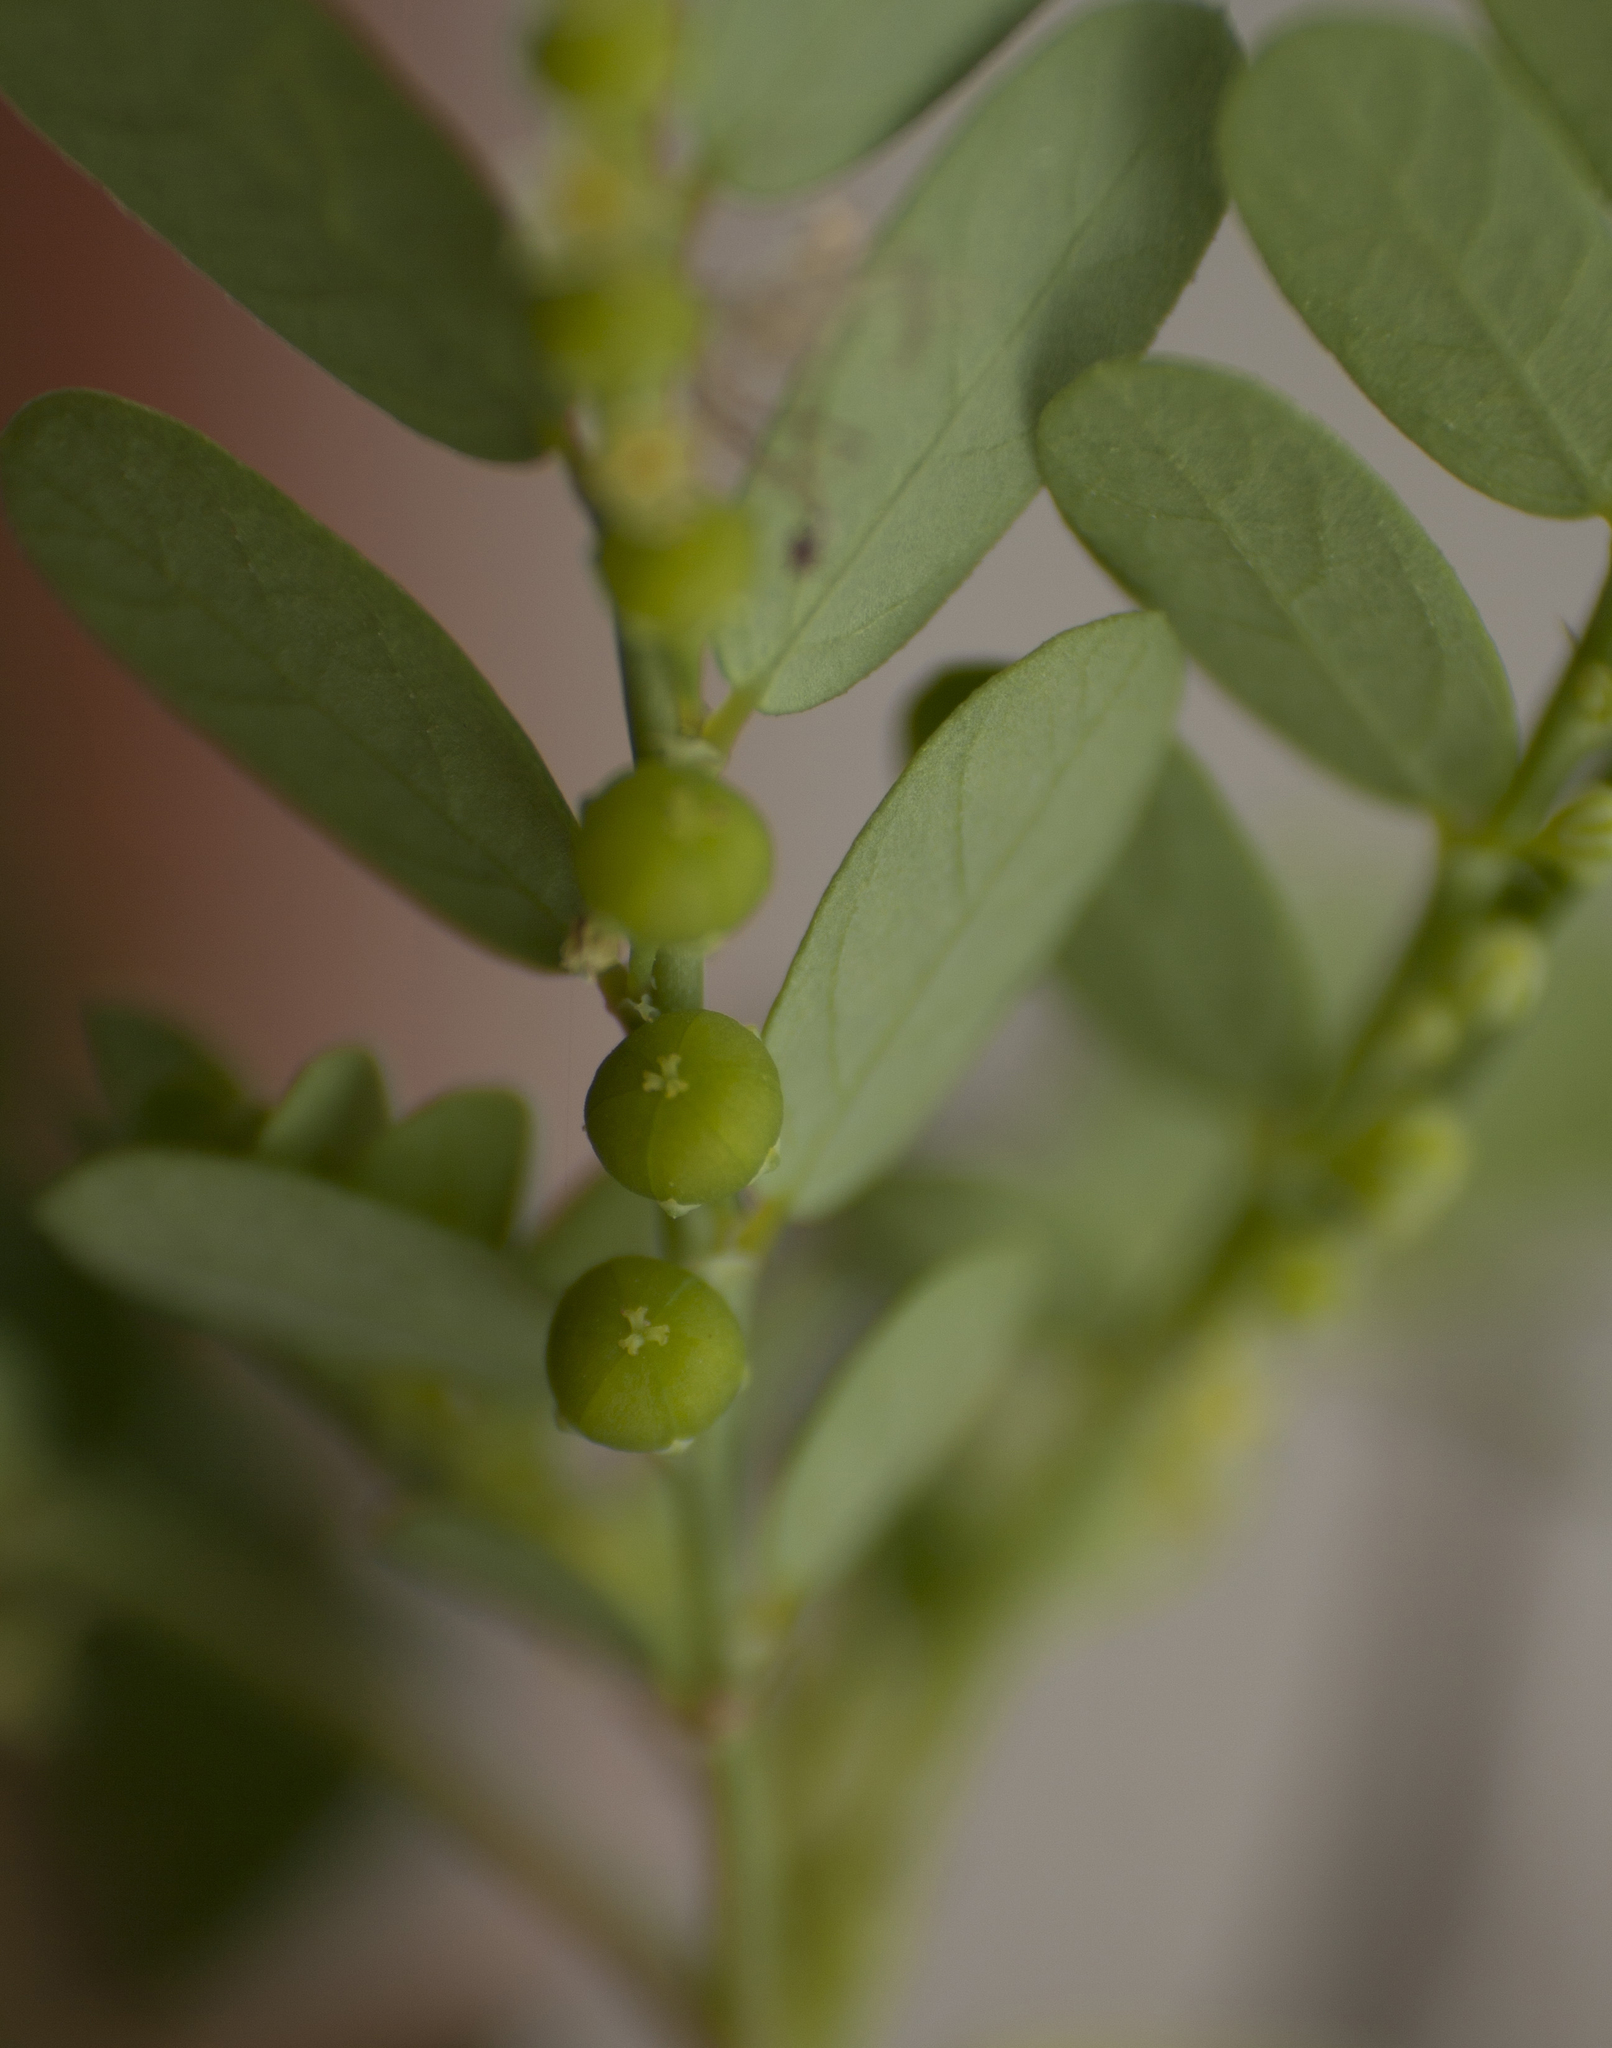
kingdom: Plantae
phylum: Tracheophyta
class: Magnoliopsida
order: Malpighiales
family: Phyllanthaceae
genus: Phyllanthus
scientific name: Phyllanthus amarus
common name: Carry me seed
